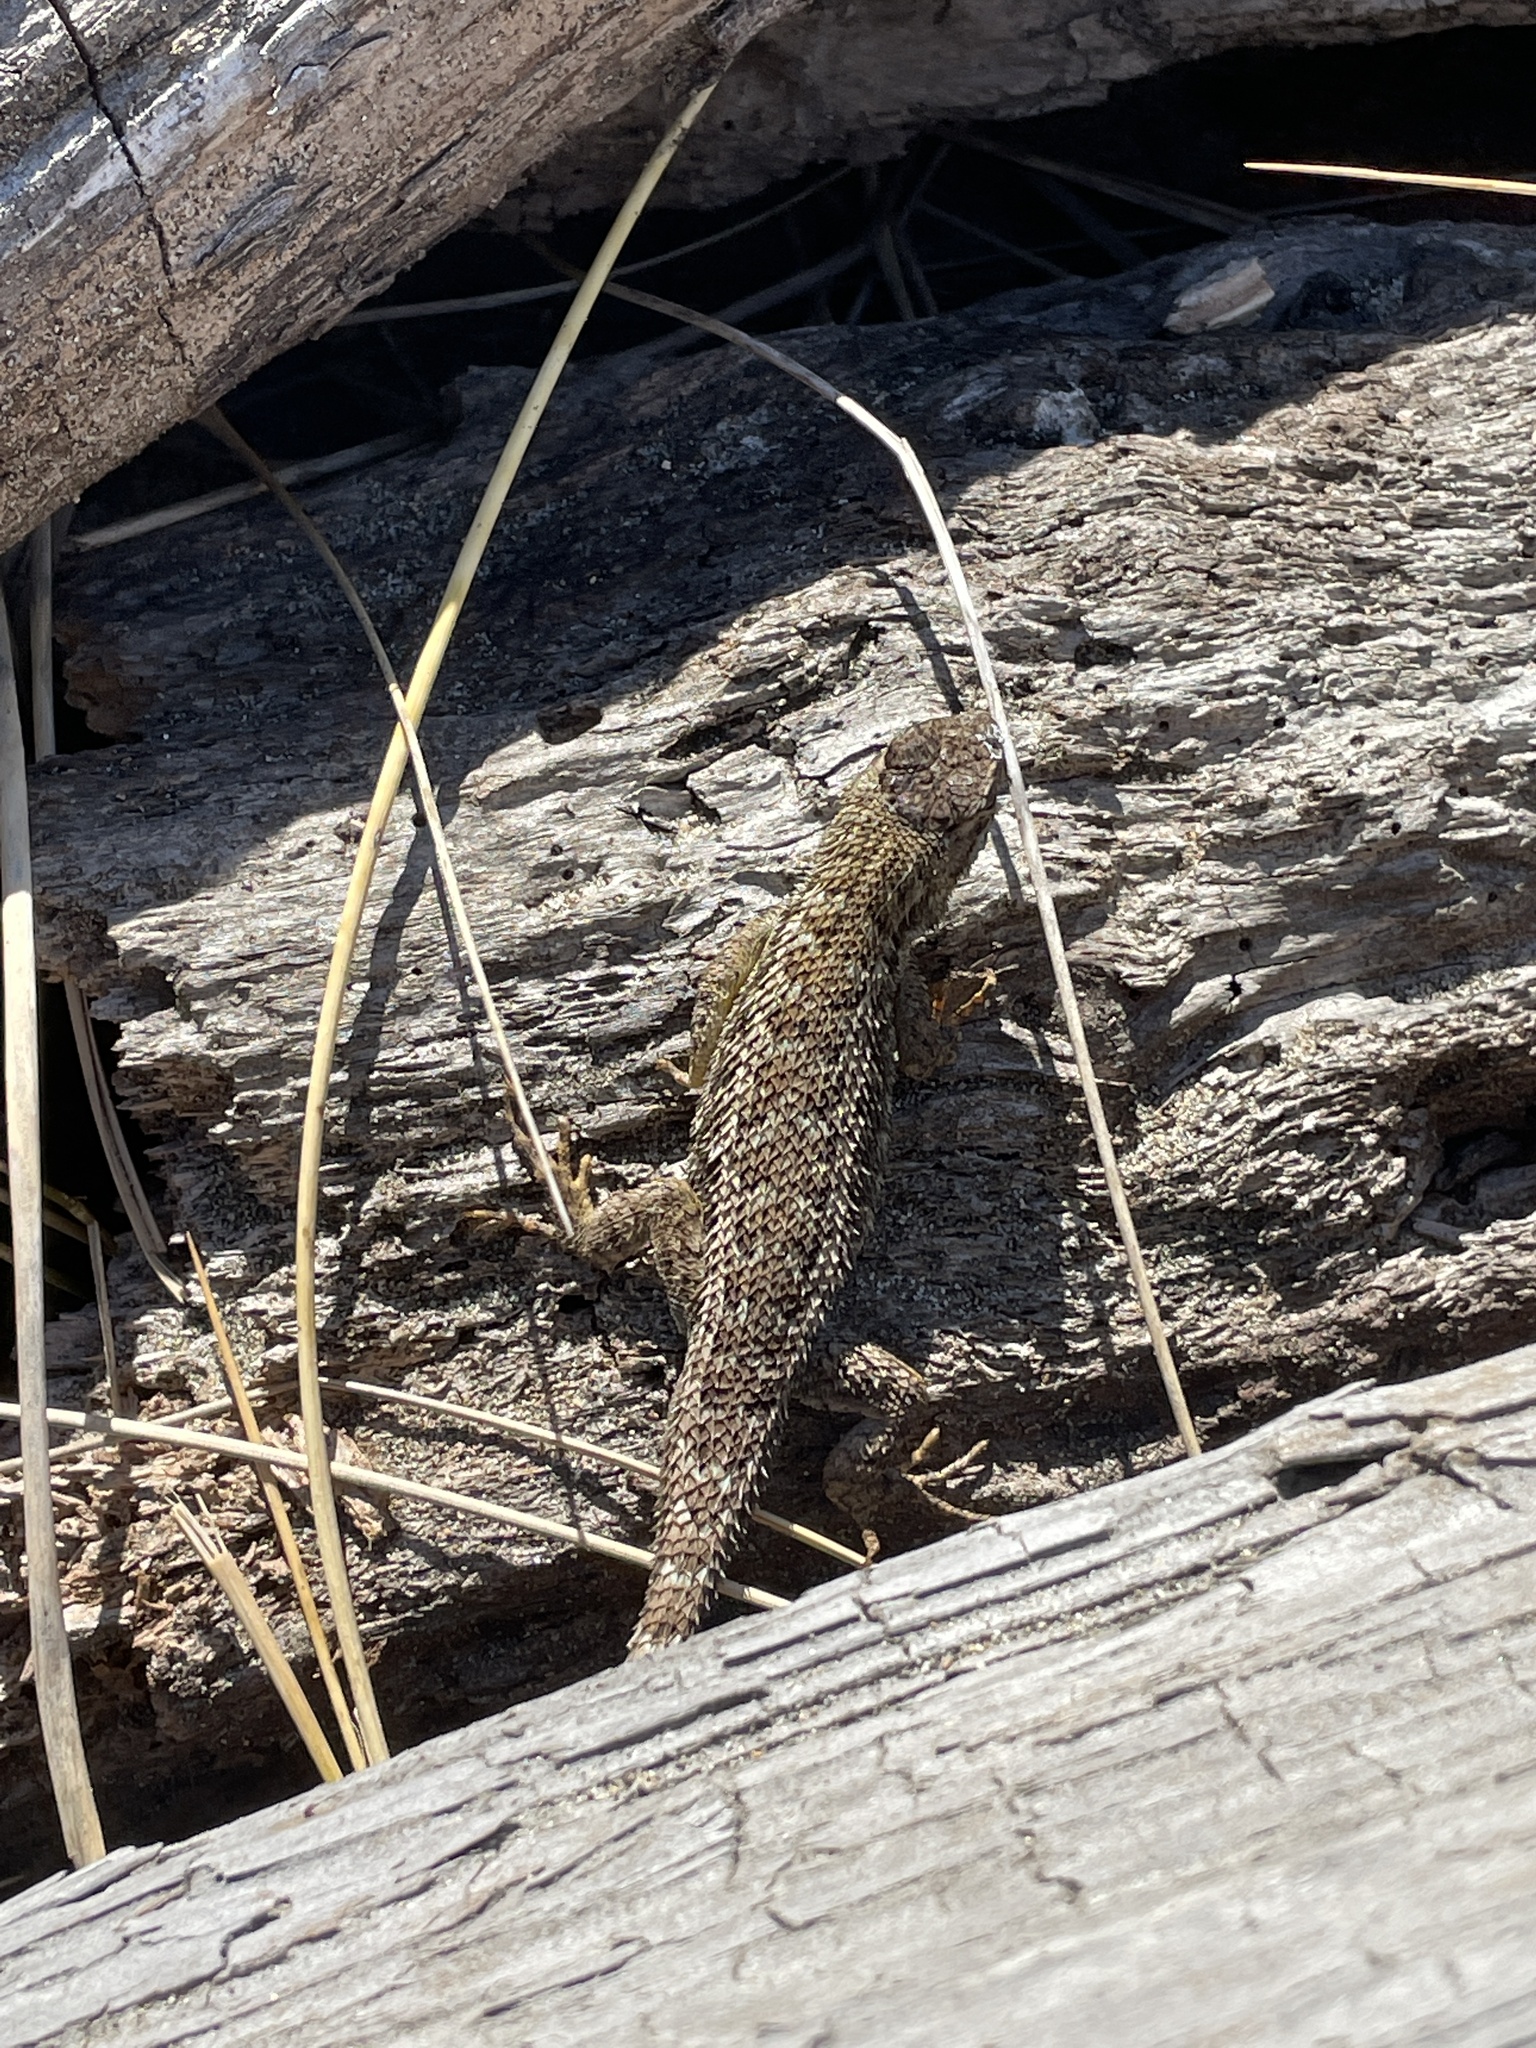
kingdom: Animalia
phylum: Chordata
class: Squamata
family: Phrynosomatidae
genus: Sceloporus
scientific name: Sceloporus occidentalis
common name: Western fence lizard
